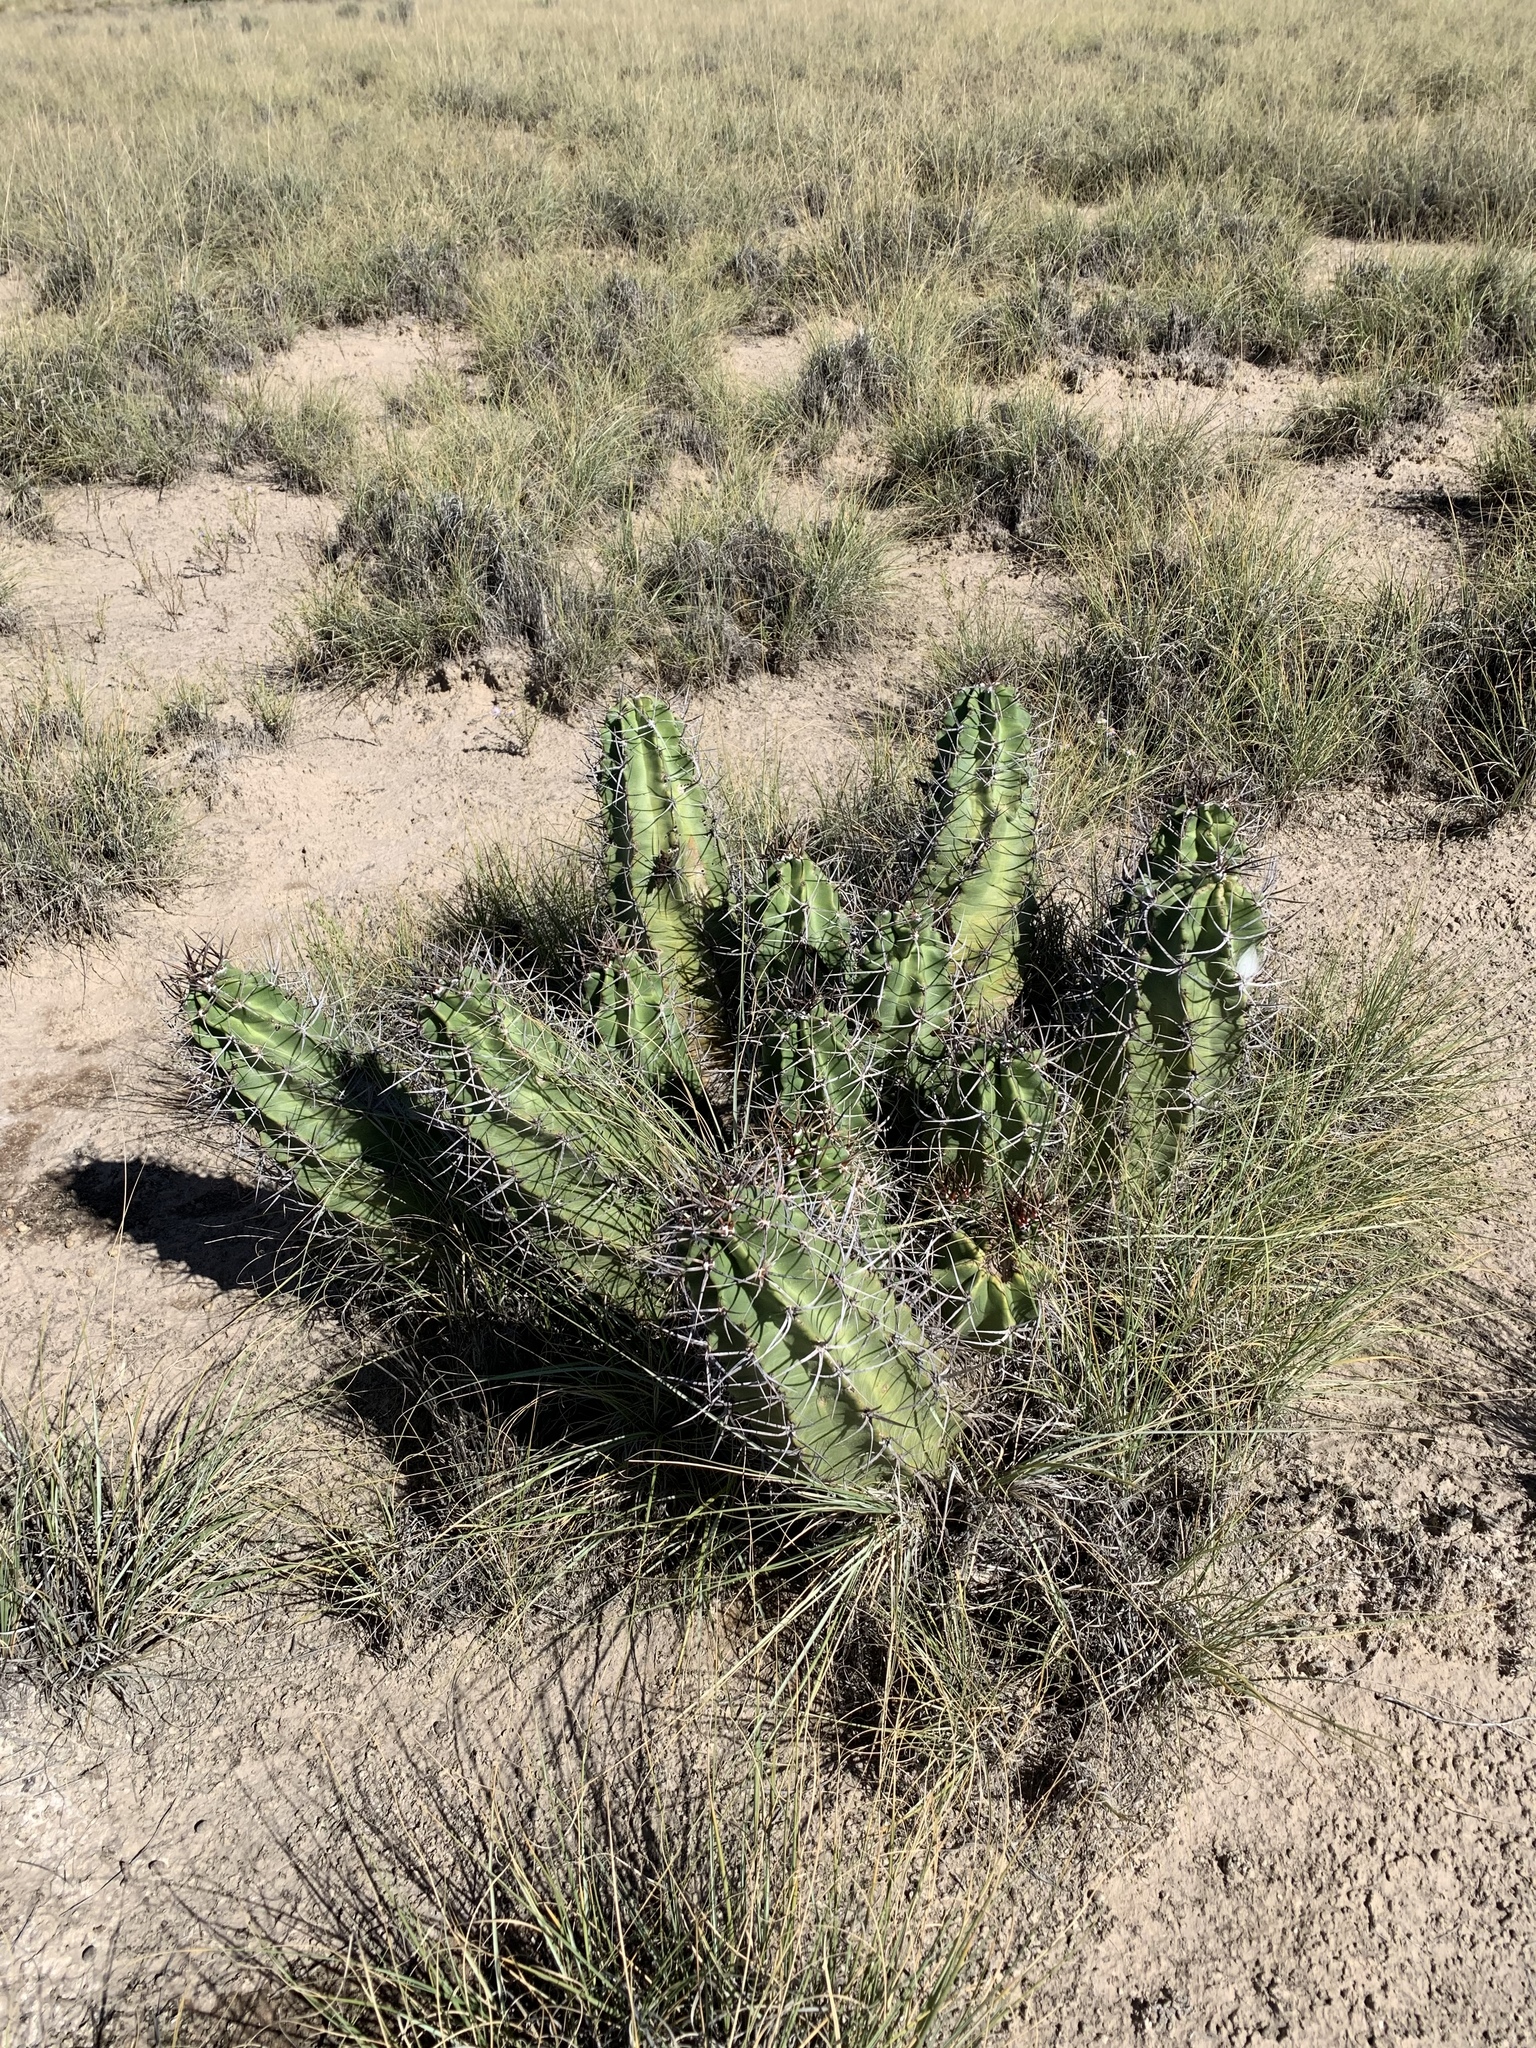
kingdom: Plantae
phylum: Tracheophyta
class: Magnoliopsida
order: Caryophyllales
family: Cactaceae
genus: Echinocereus
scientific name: Echinocereus triglochidiatus
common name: Claretcup hedgehog
